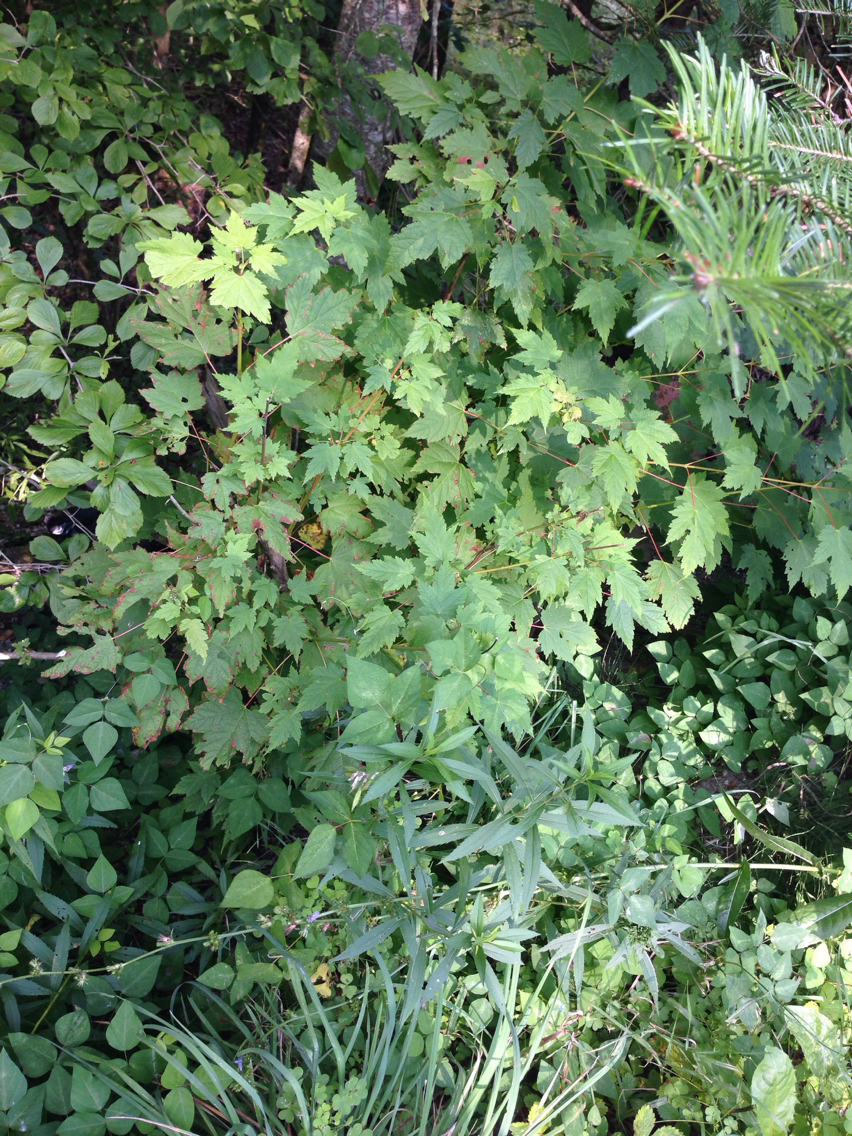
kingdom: Plantae
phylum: Tracheophyta
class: Magnoliopsida
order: Sapindales
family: Sapindaceae
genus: Acer
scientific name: Acer rubrum
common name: Red maple
